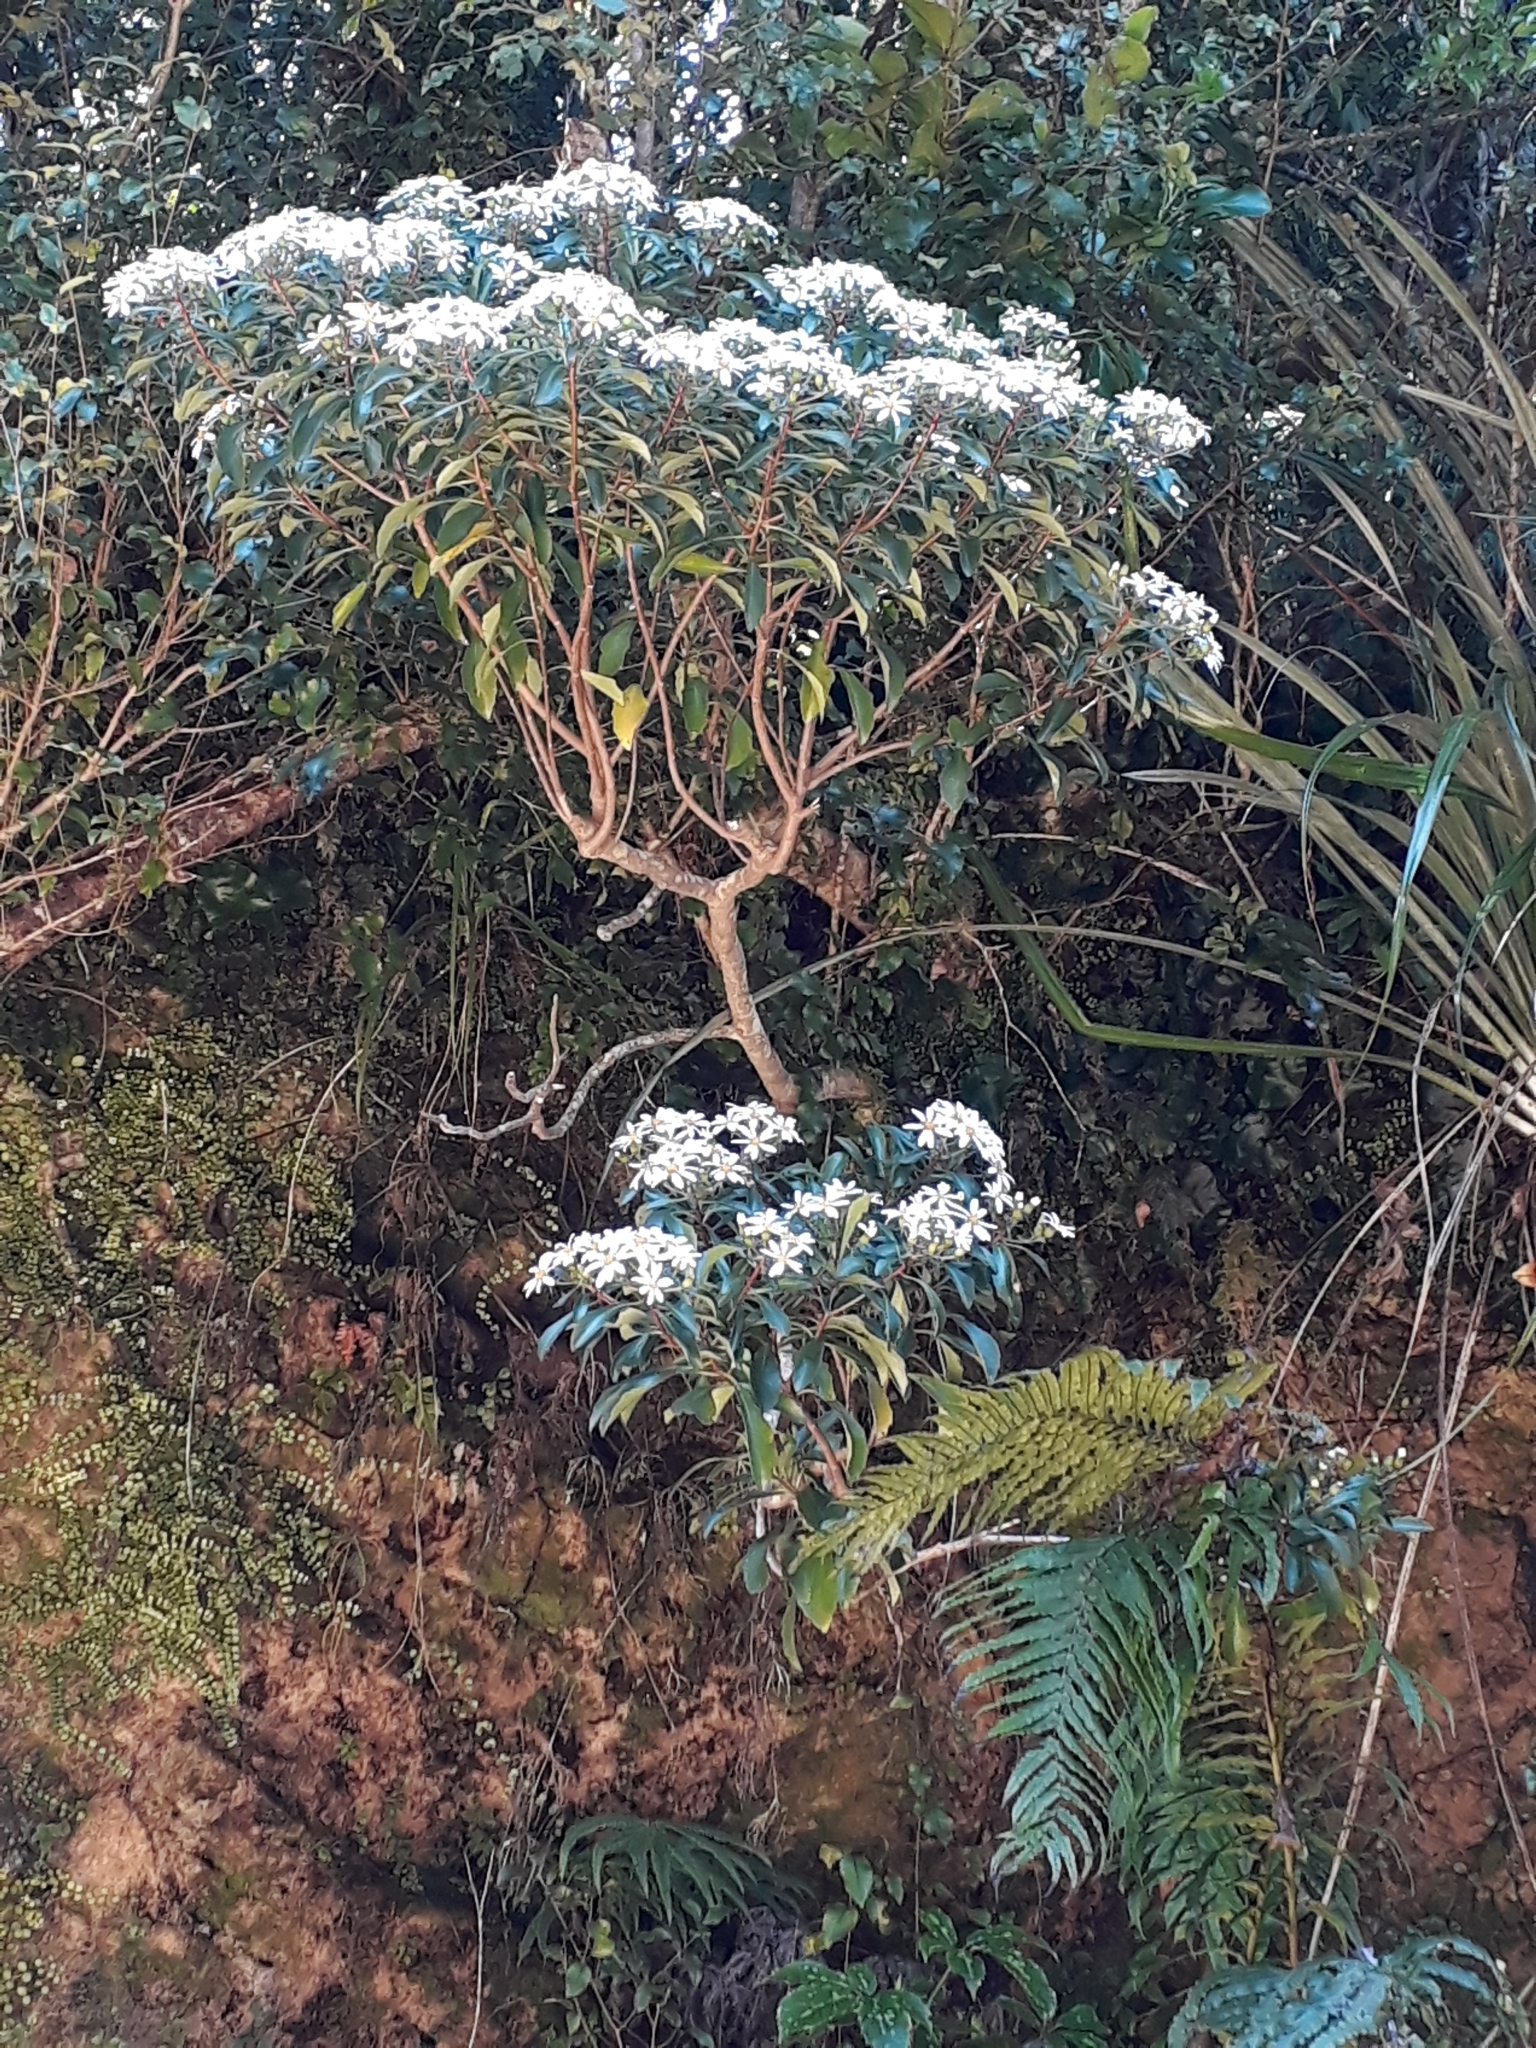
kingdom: Plantae
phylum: Tracheophyta
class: Magnoliopsida
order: Asterales
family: Asteraceae
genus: Brachyglottis
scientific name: Brachyglottis kirkii
